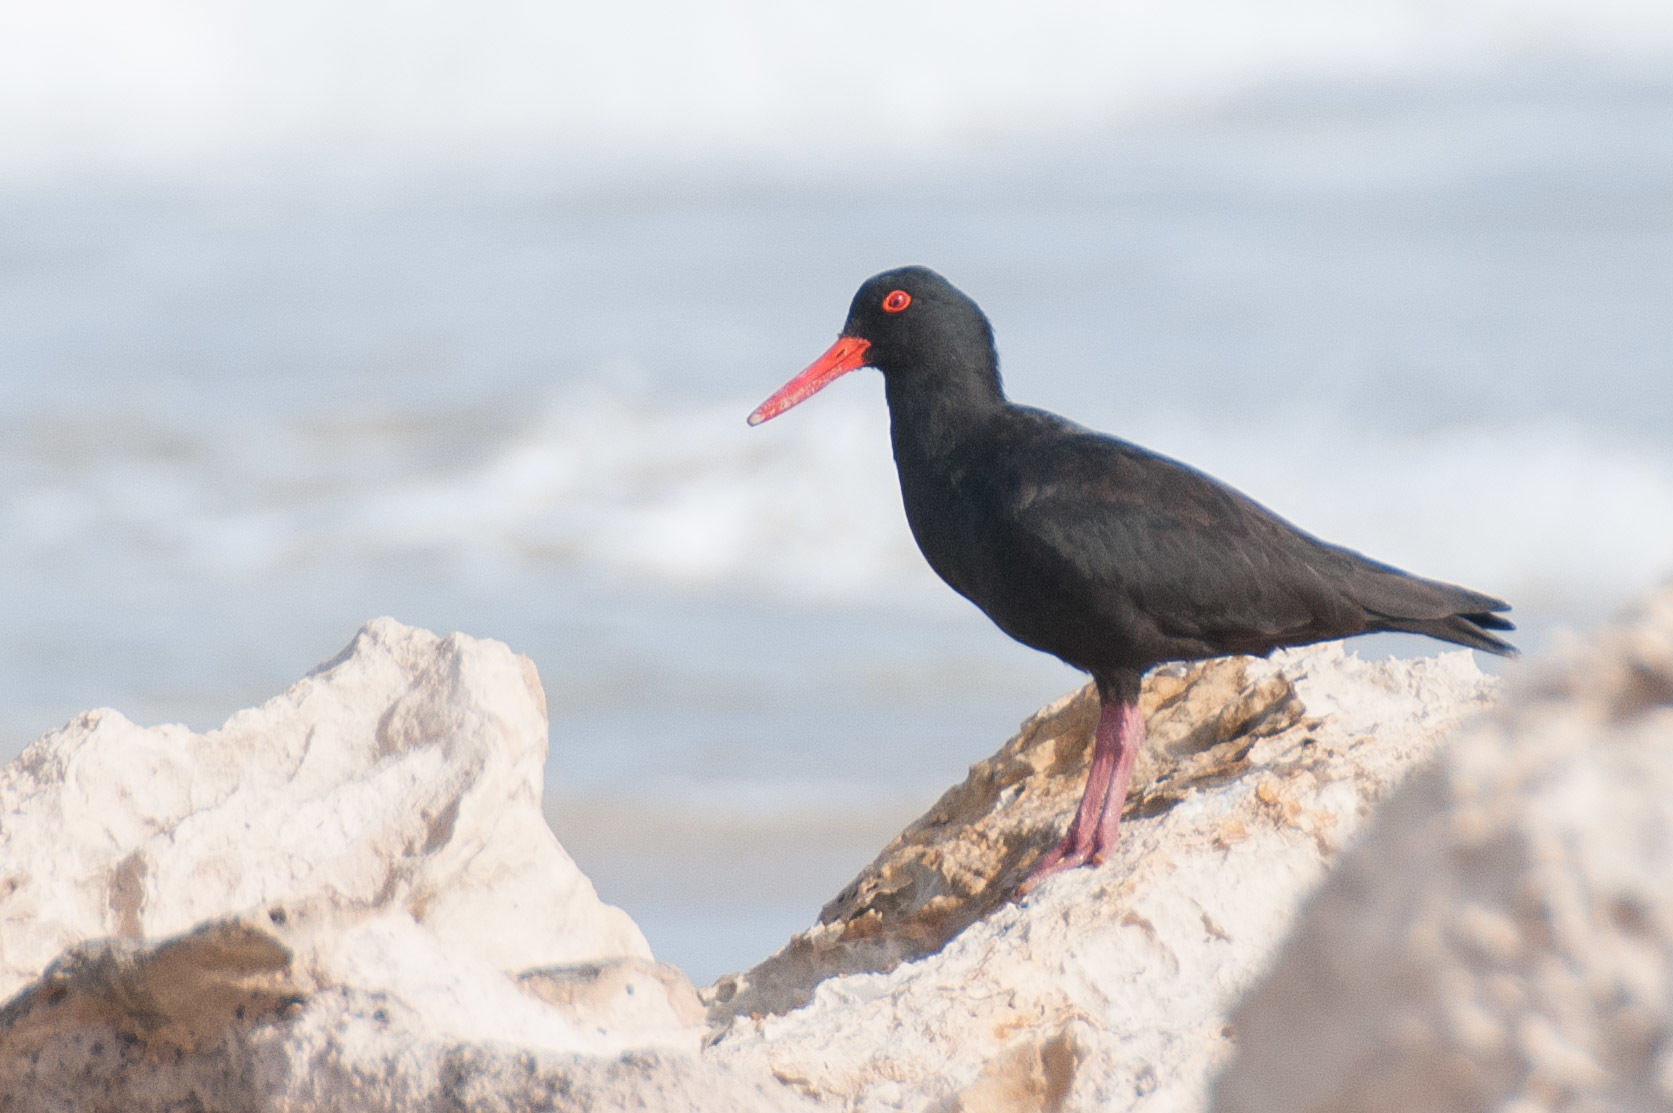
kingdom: Animalia
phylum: Chordata
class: Aves
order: Charadriiformes
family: Haematopodidae
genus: Haematopus
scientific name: Haematopus fuliginosus
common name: Sooty oystercatcher
